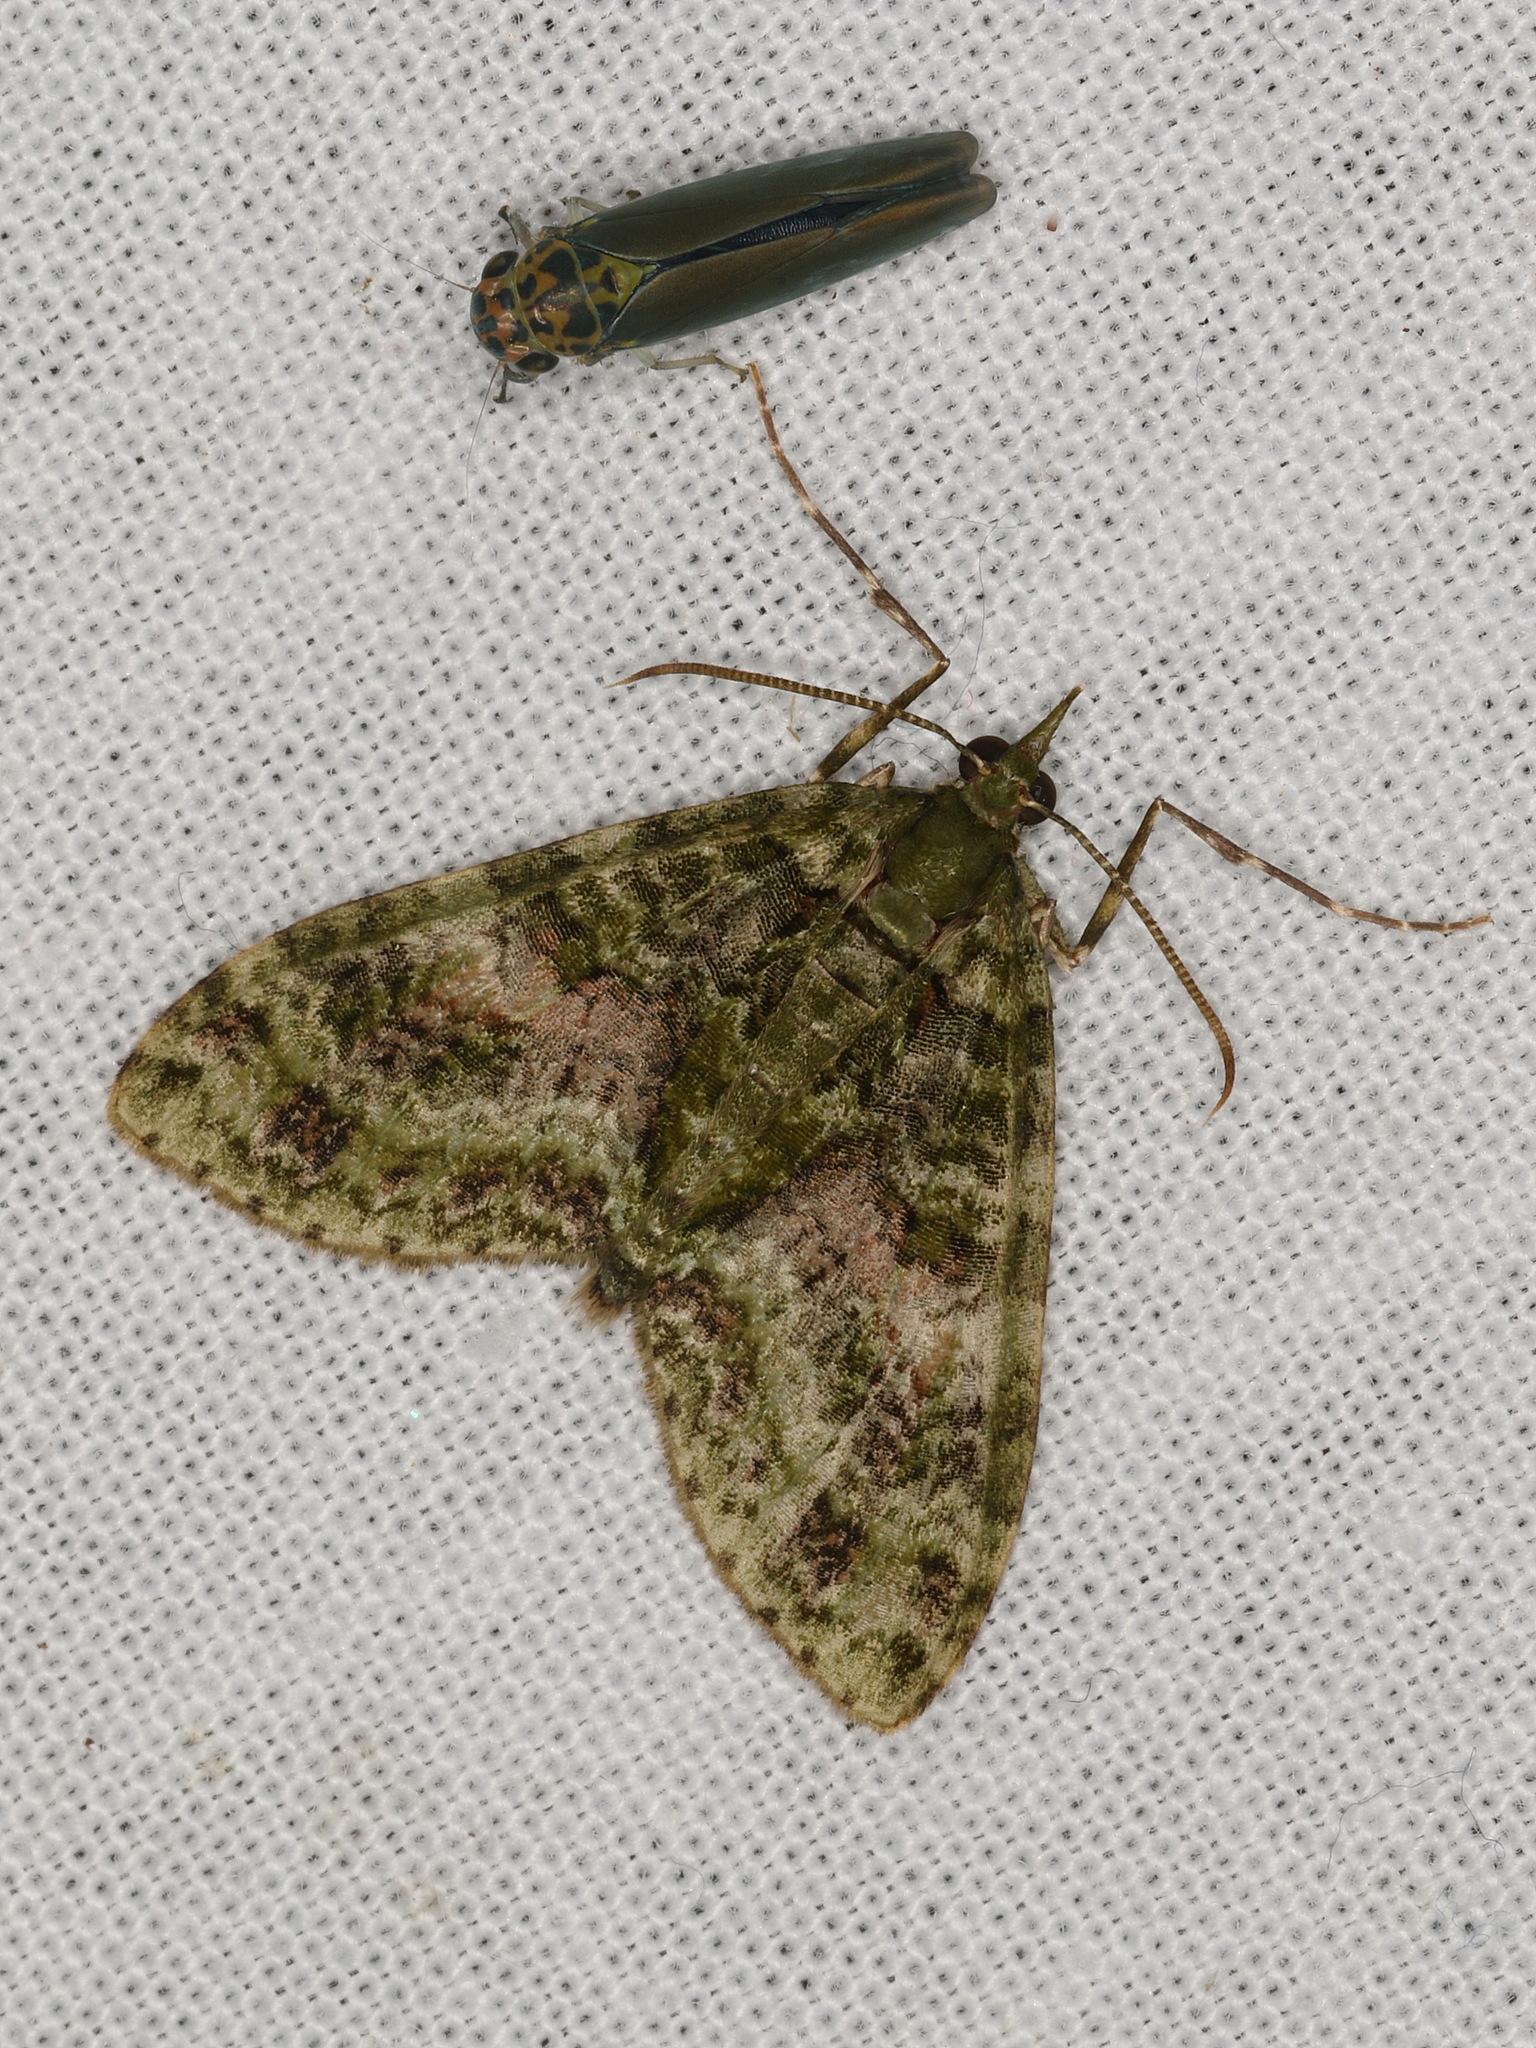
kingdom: Animalia
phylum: Arthropoda
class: Insecta
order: Lepidoptera
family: Geometridae
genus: Tympanota
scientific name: Tympanota perophora
